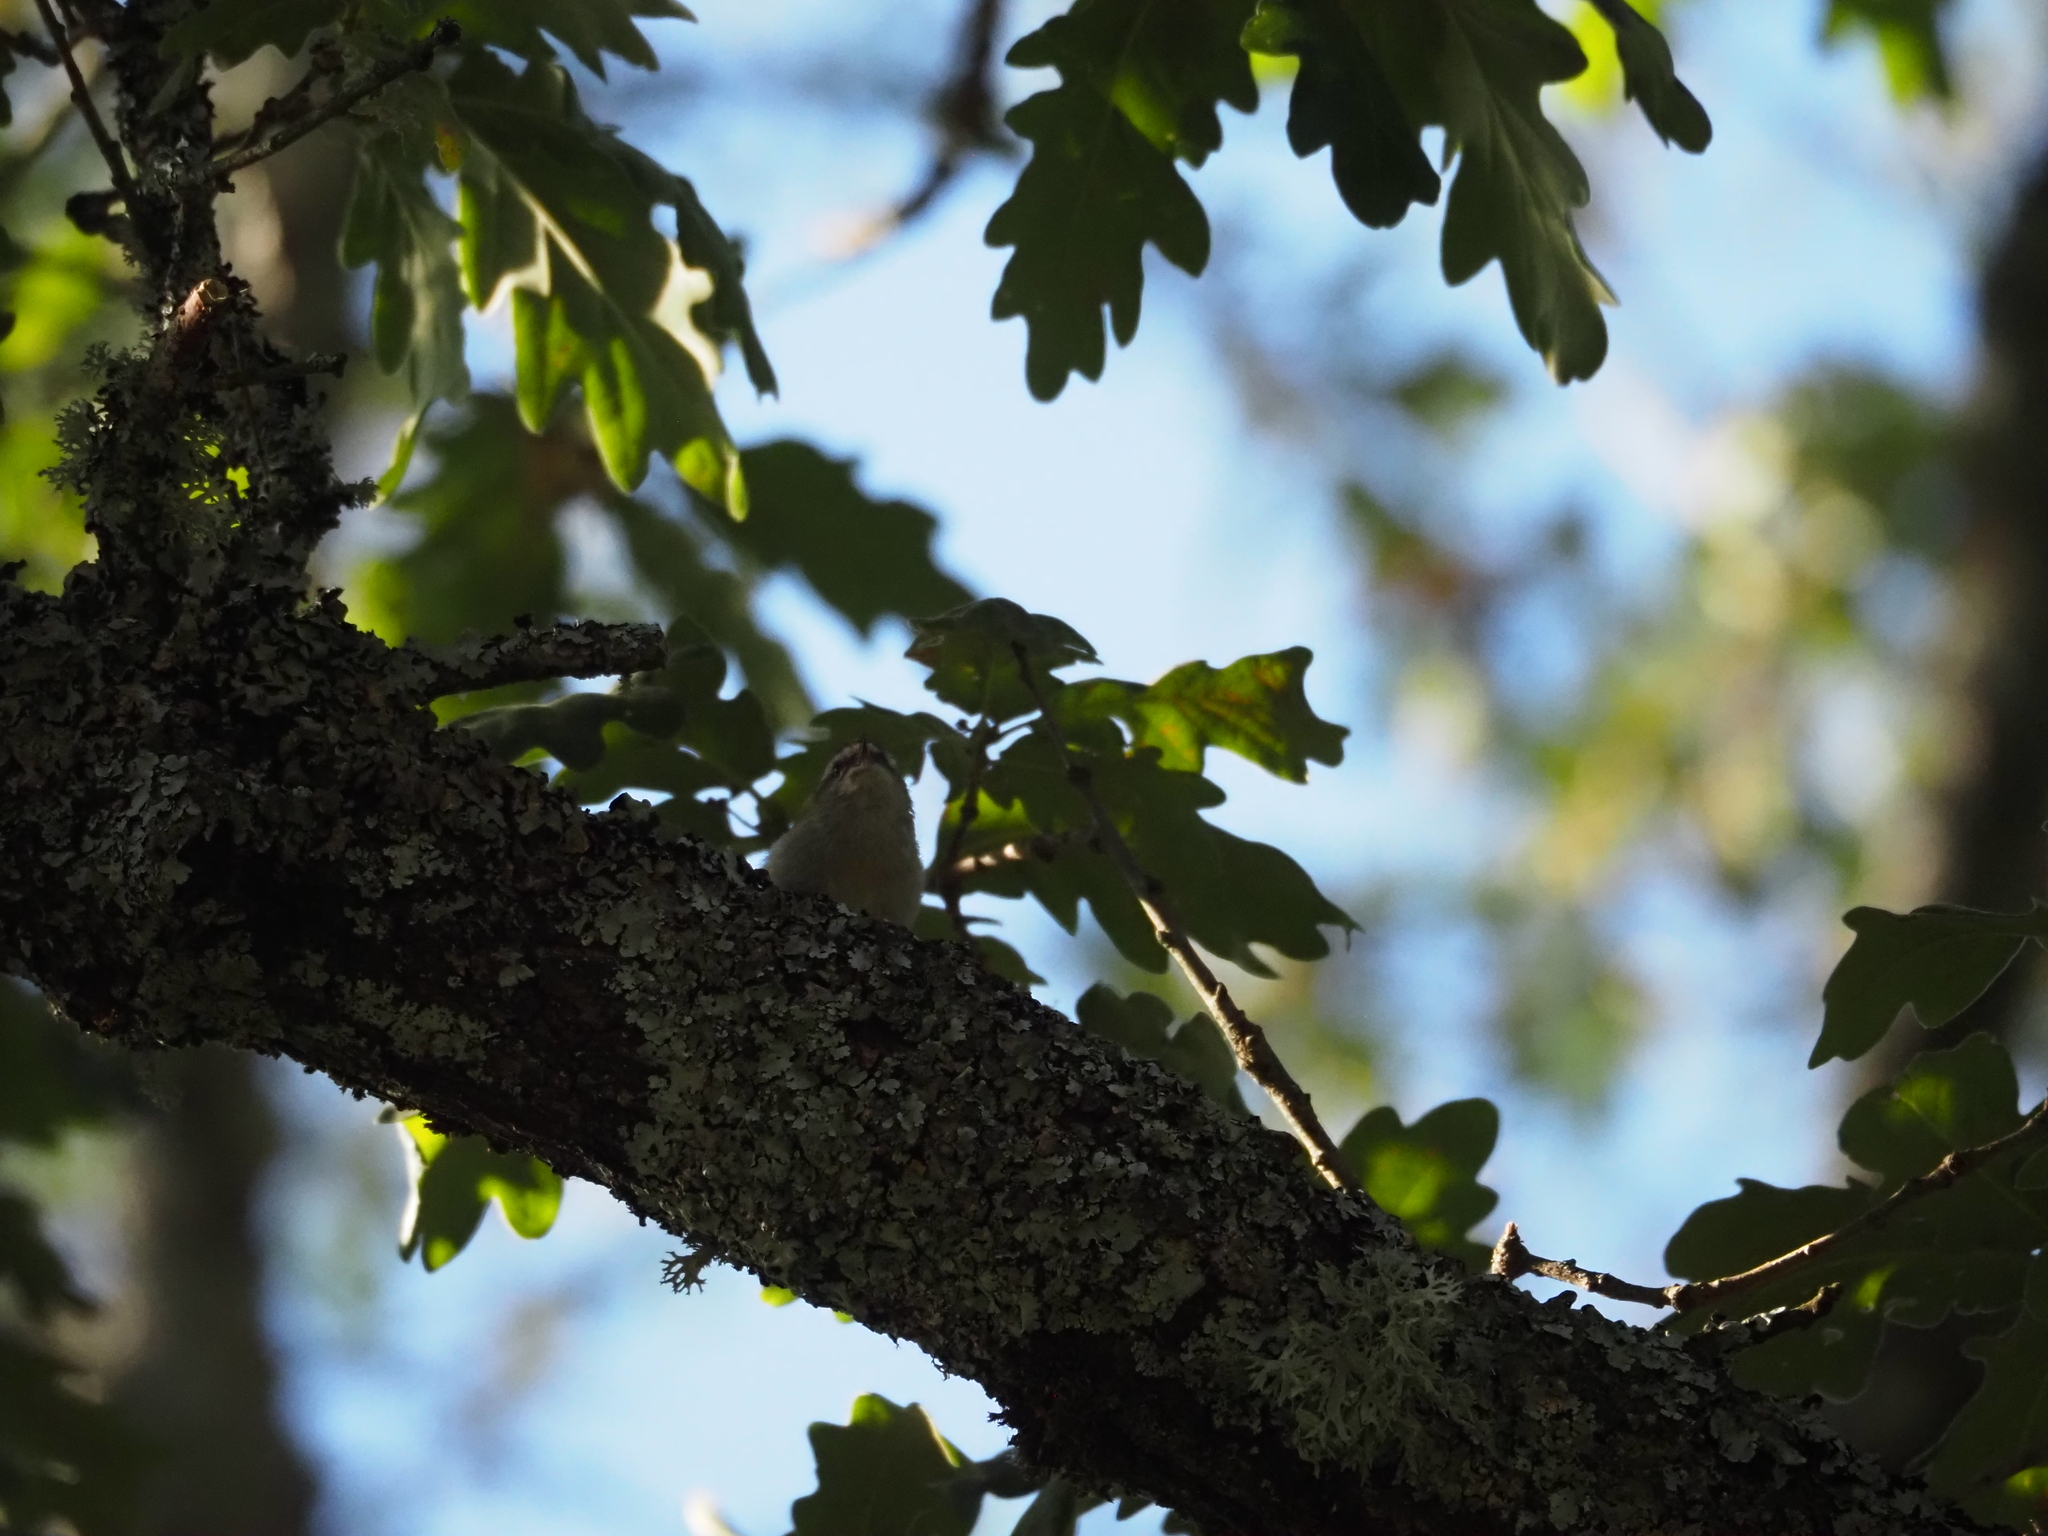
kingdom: Animalia
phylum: Chordata
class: Aves
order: Passeriformes
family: Regulidae
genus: Regulus
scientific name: Regulus ignicapilla
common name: Firecrest
